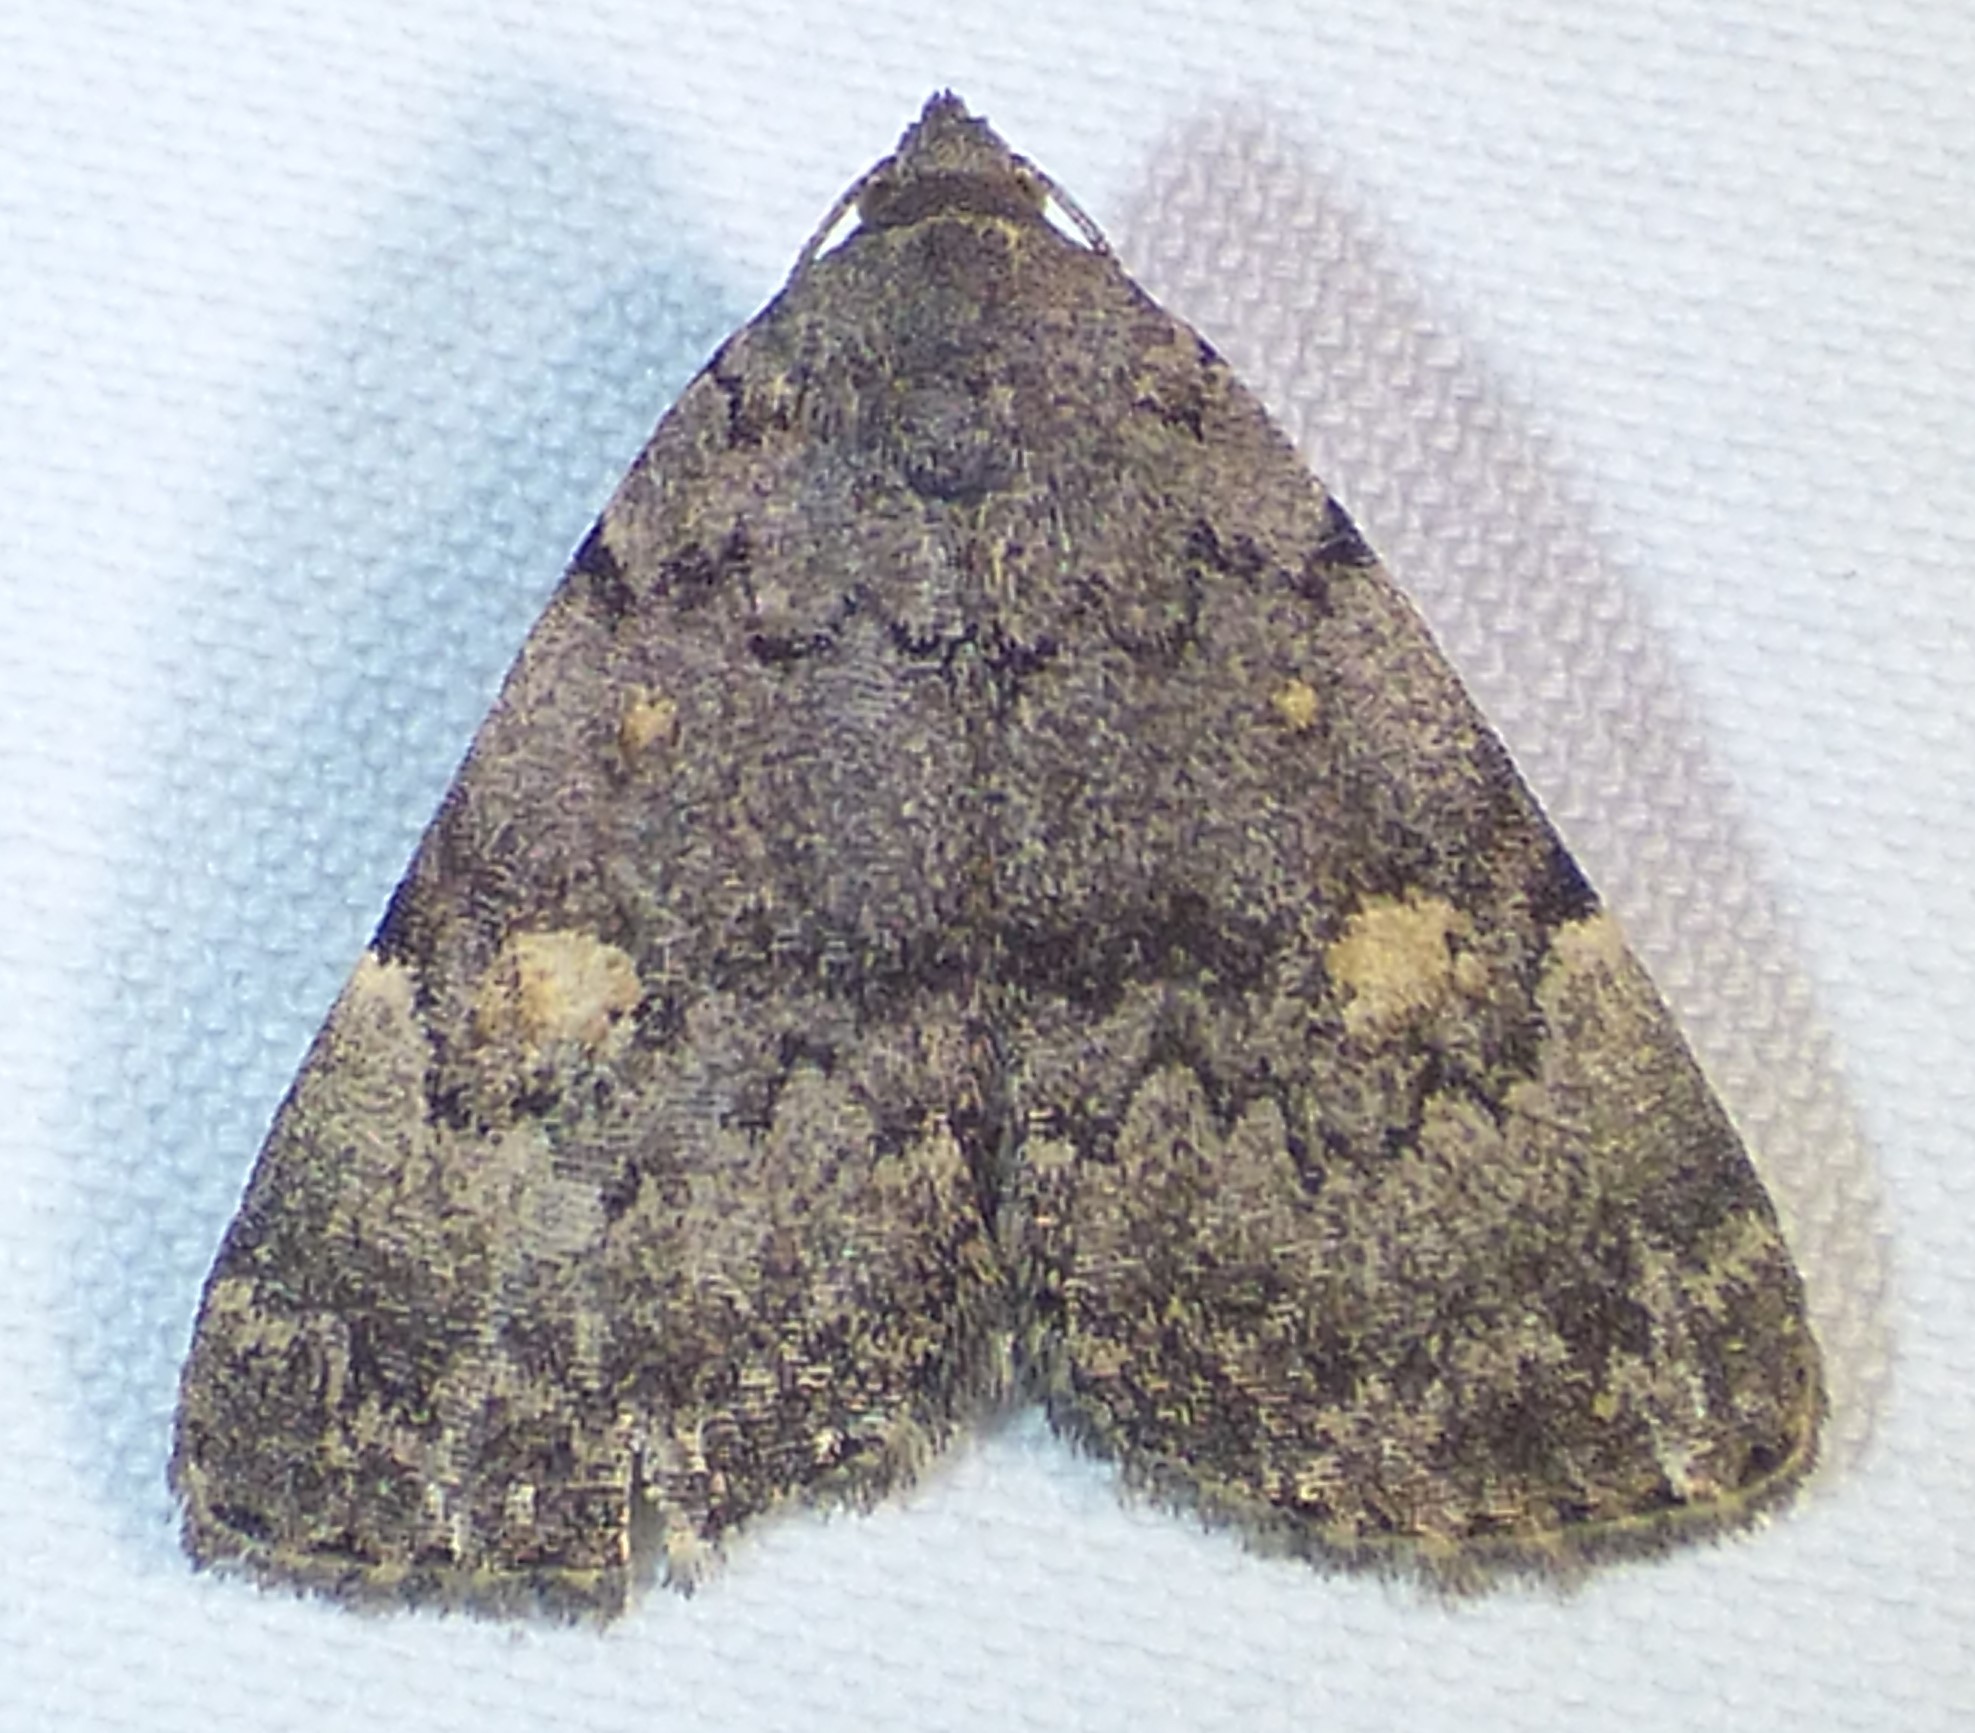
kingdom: Animalia
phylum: Arthropoda
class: Insecta
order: Lepidoptera
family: Erebidae
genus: Idia
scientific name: Idia aemula
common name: Common idia moth
